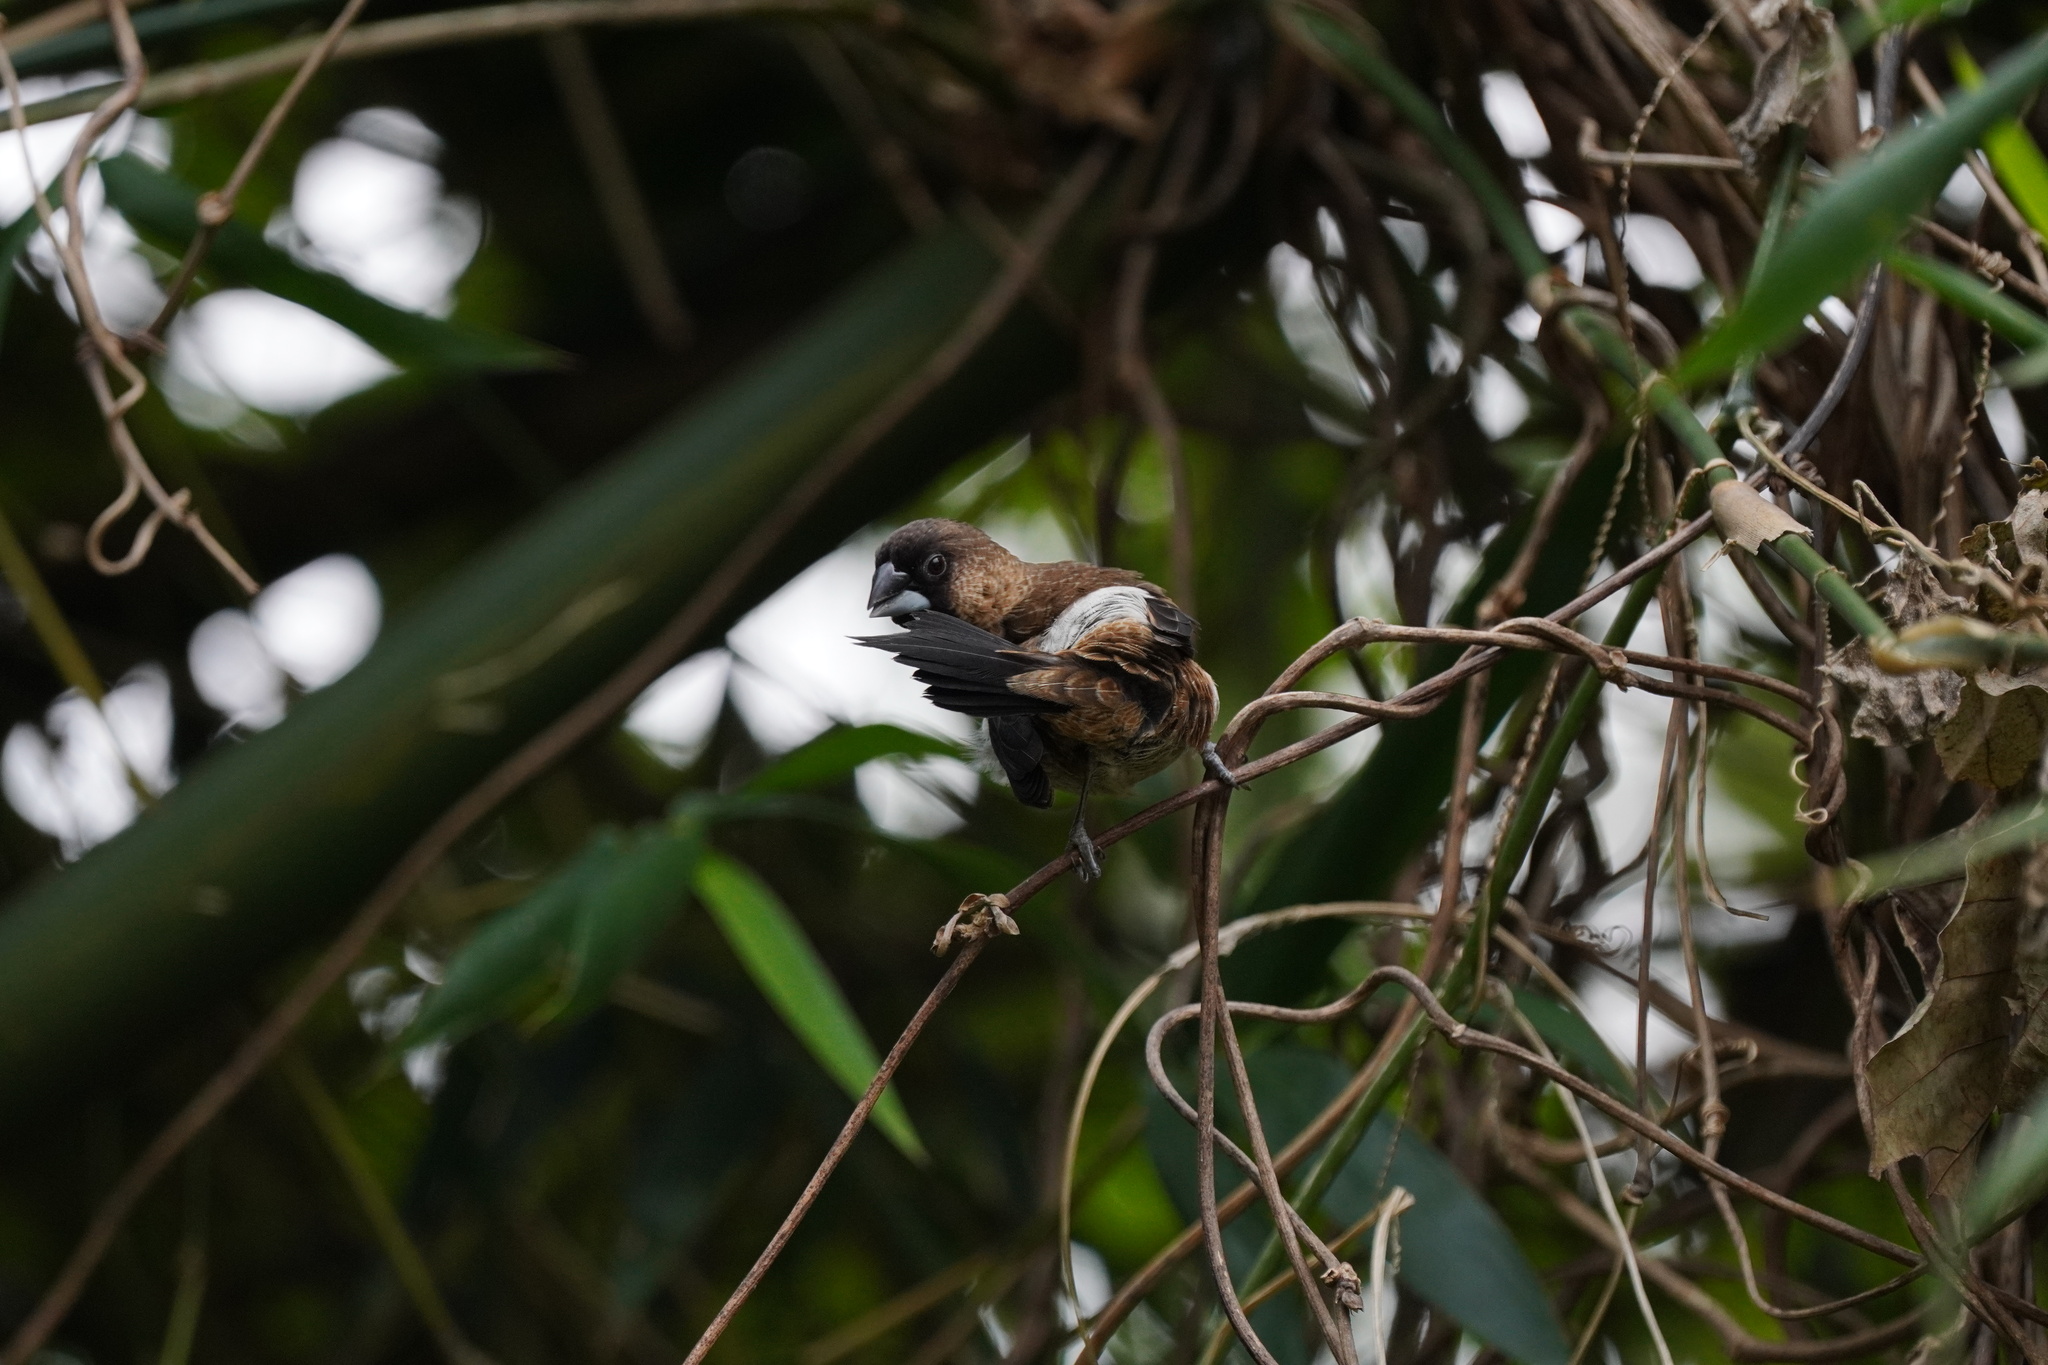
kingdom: Animalia
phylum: Chordata
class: Aves
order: Passeriformes
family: Estrildidae
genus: Lonchura
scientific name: Lonchura striata
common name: White-rumped munia
